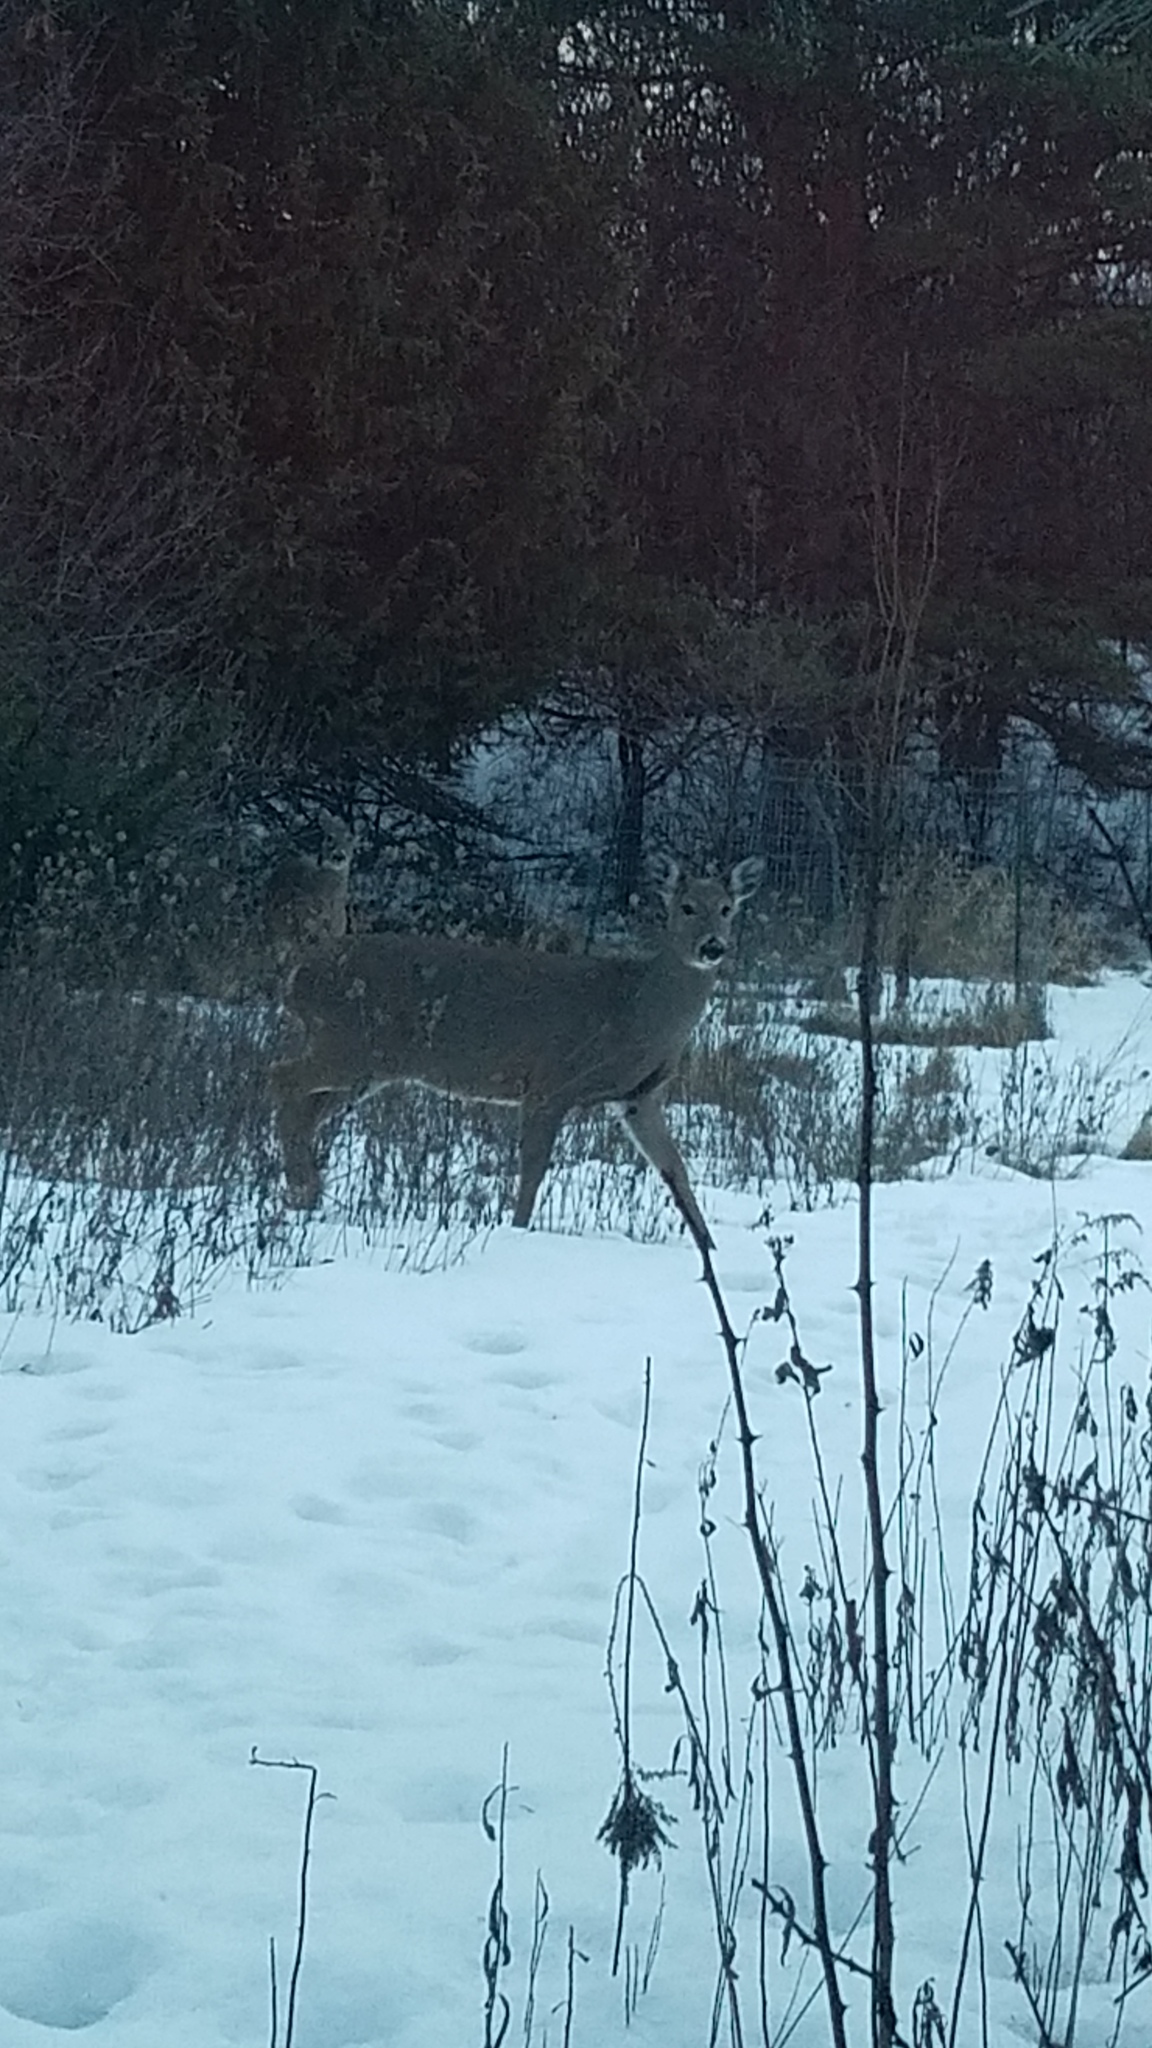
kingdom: Animalia
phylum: Chordata
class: Mammalia
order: Artiodactyla
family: Cervidae
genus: Odocoileus
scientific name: Odocoileus virginianus
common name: White-tailed deer
